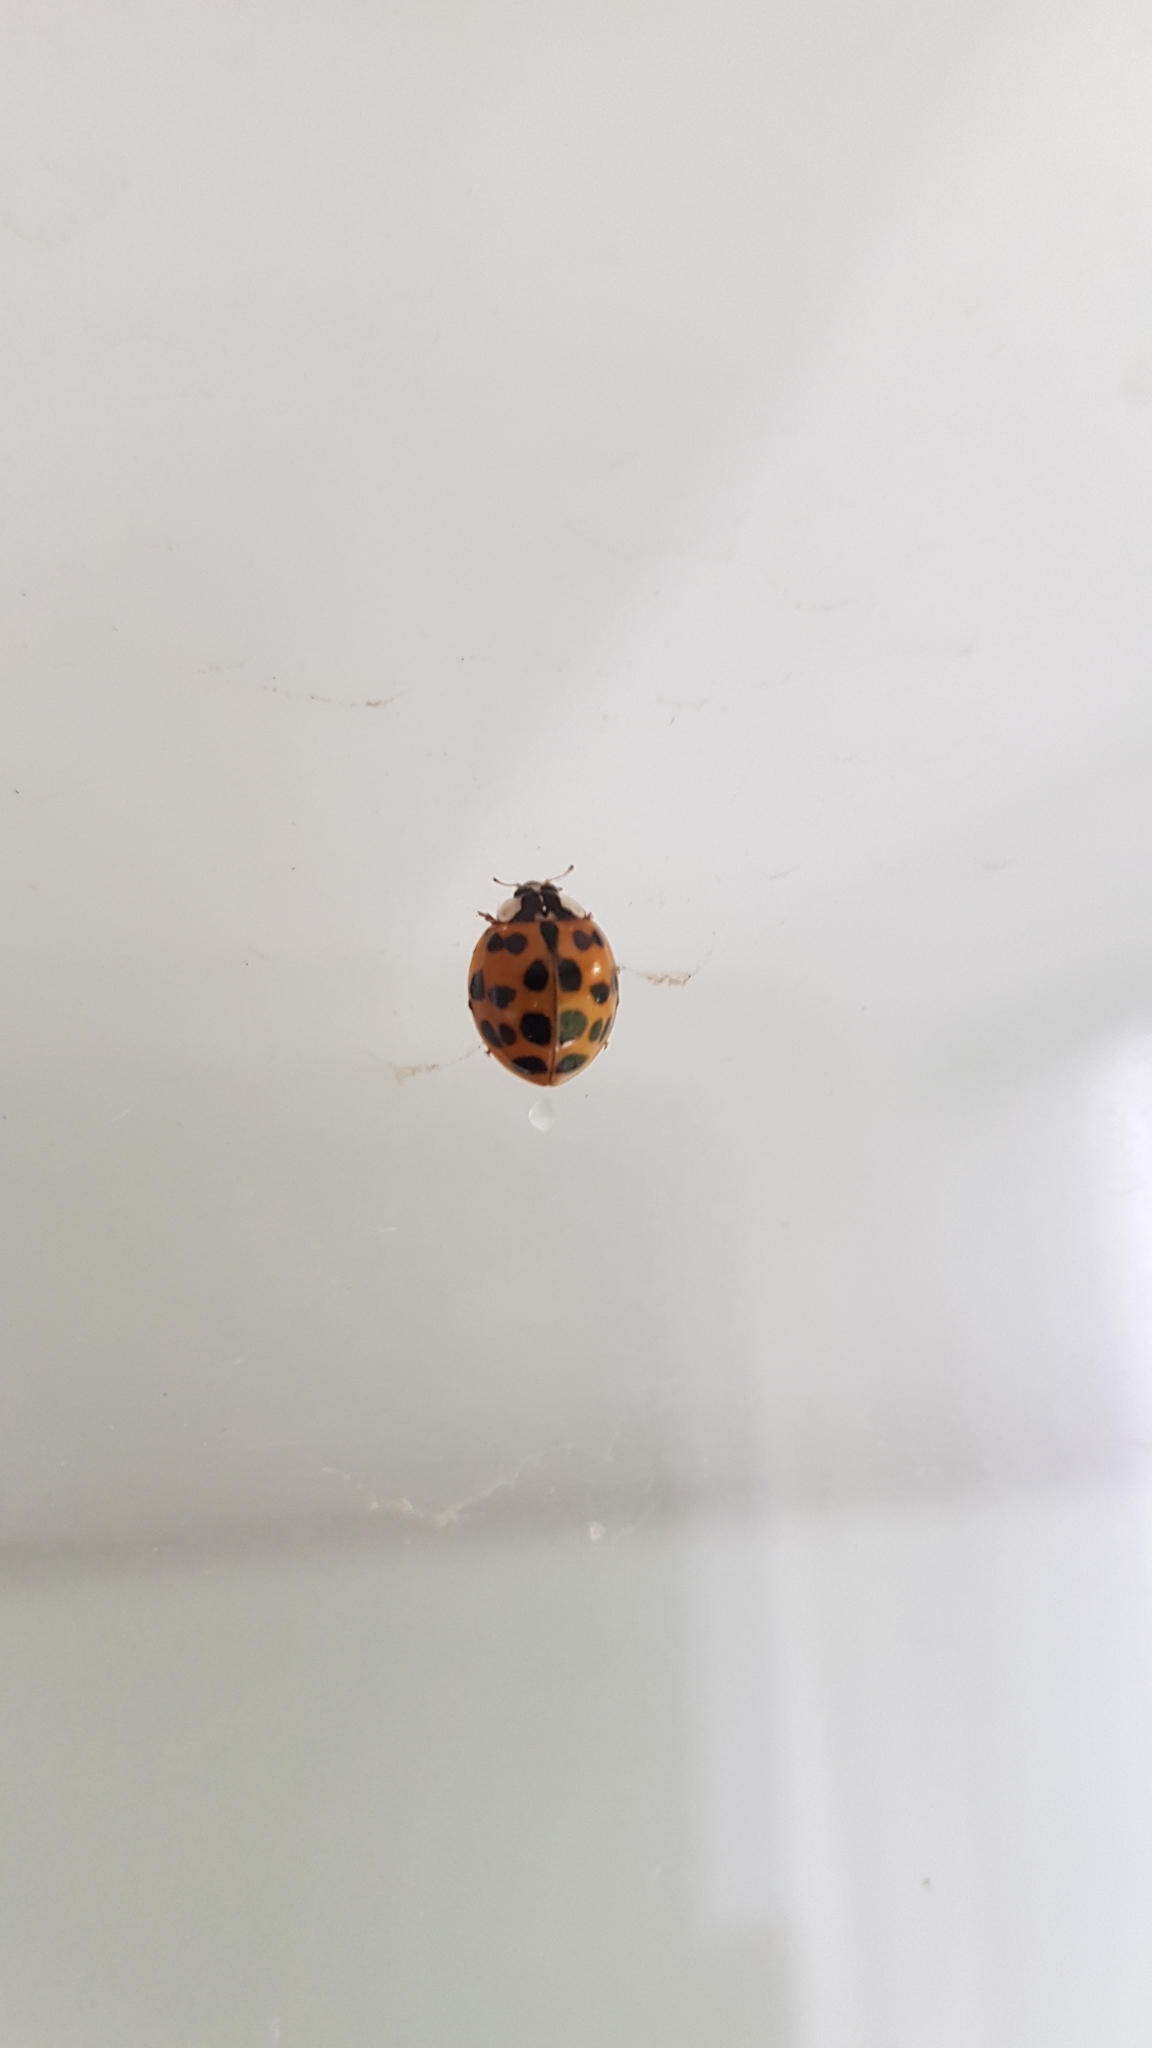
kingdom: Animalia
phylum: Arthropoda
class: Insecta
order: Coleoptera
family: Coccinellidae
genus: Harmonia
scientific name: Harmonia axyridis
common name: Harlequin ladybird
